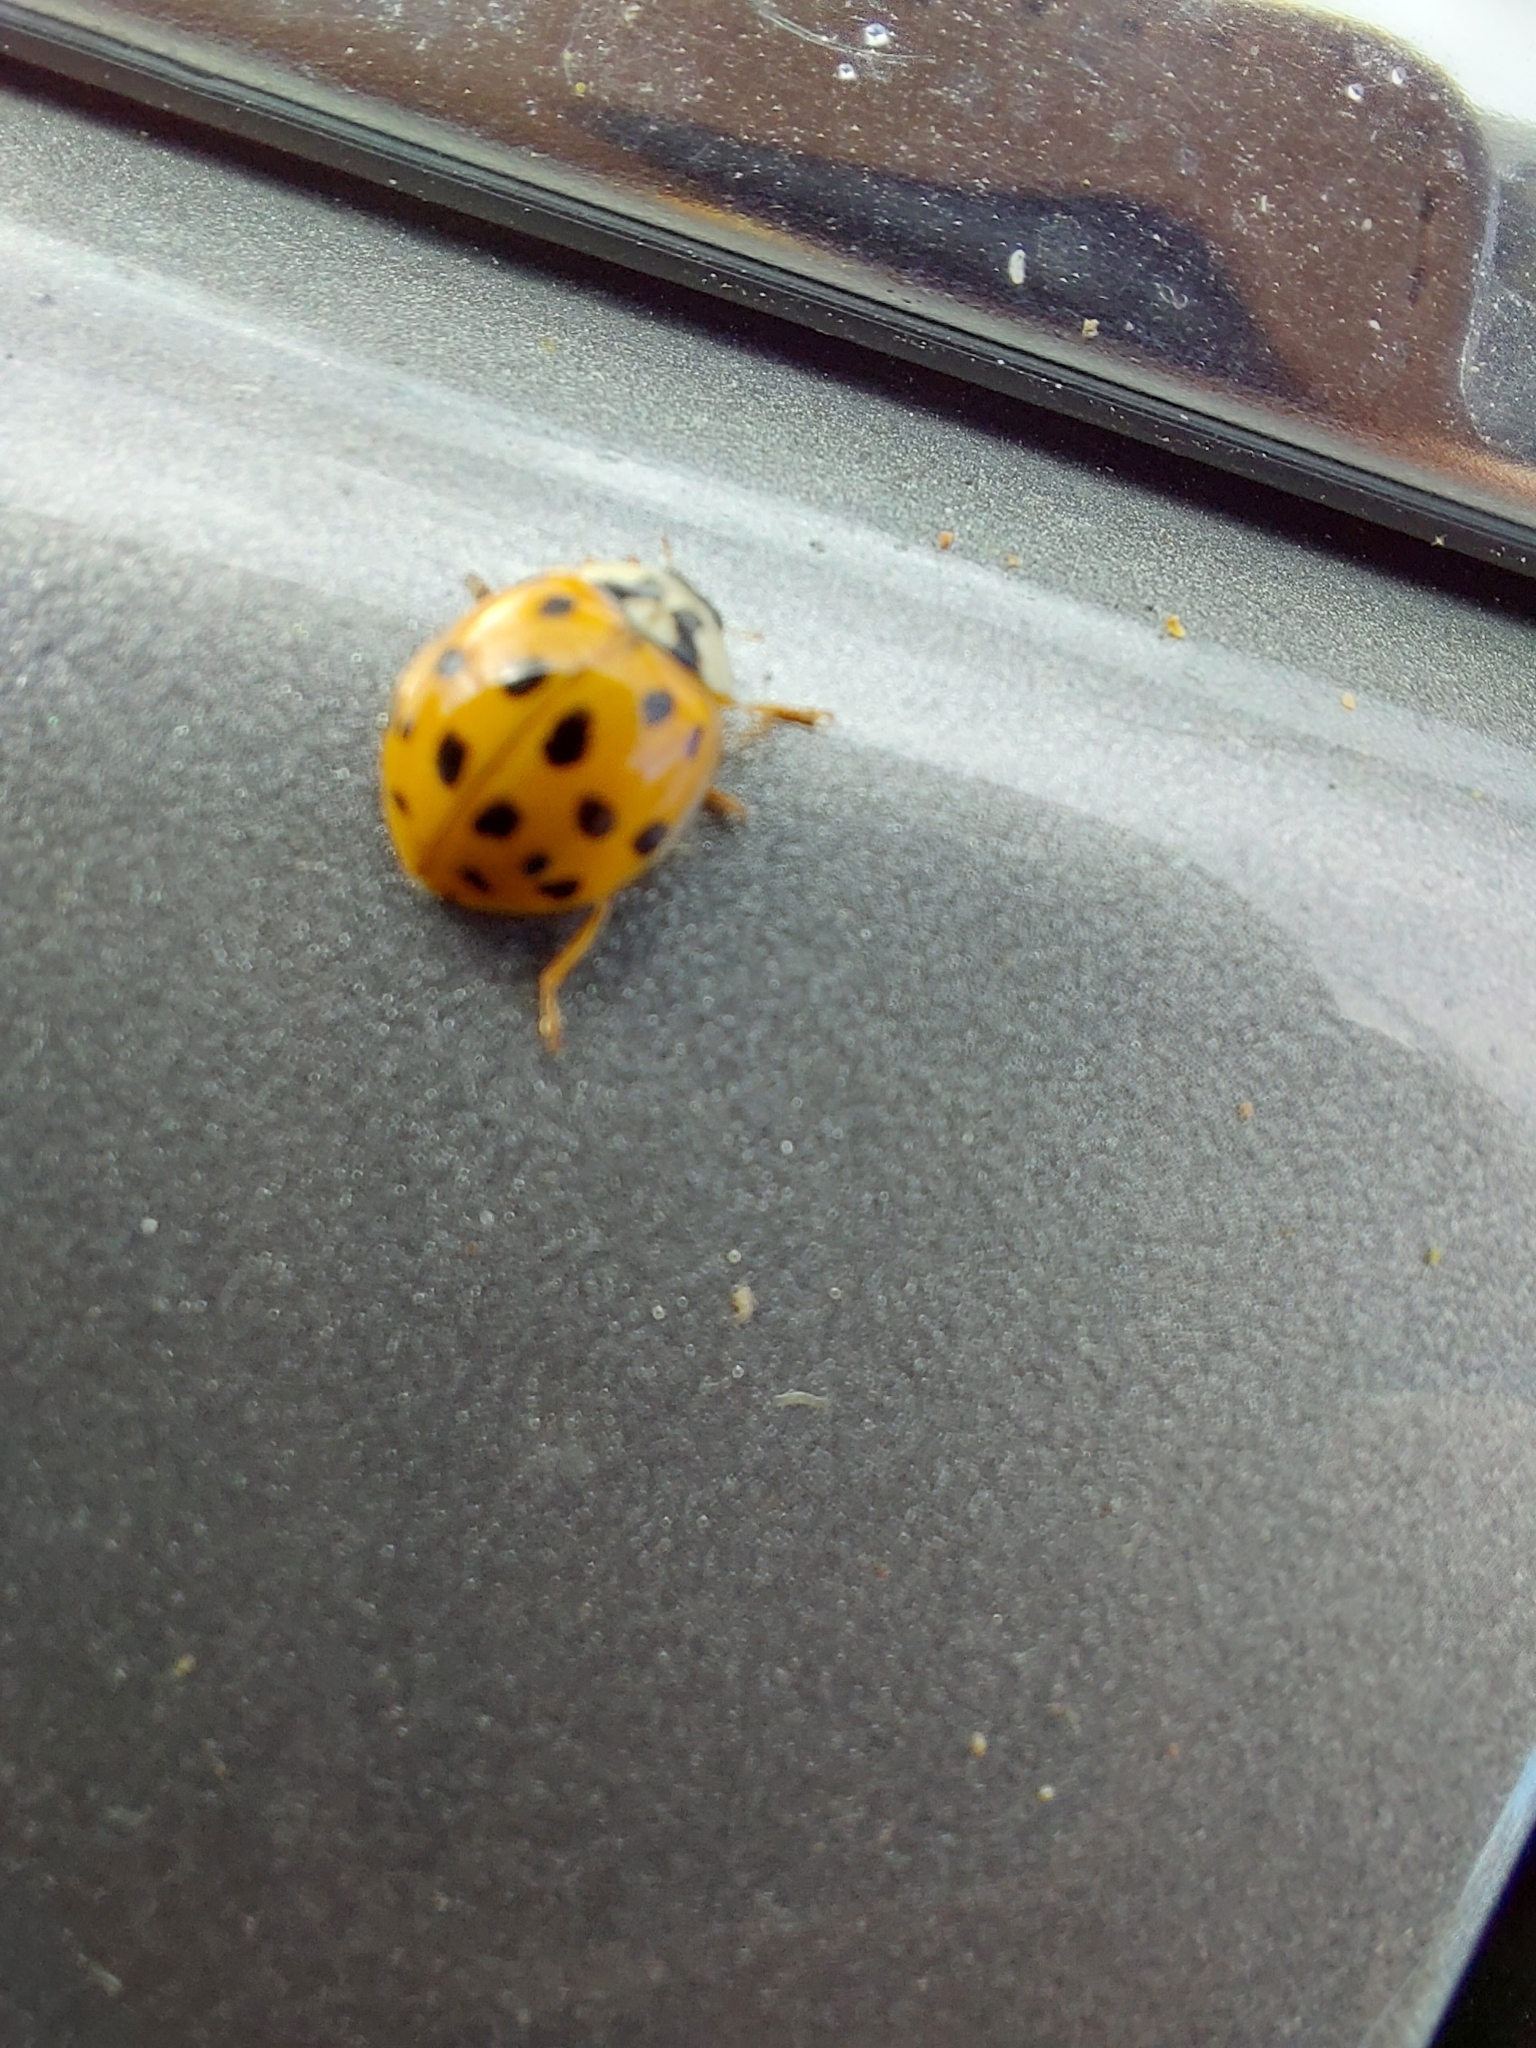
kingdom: Animalia
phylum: Arthropoda
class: Insecta
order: Coleoptera
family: Coccinellidae
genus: Harmonia
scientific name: Harmonia axyridis
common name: Harlequin ladybird
